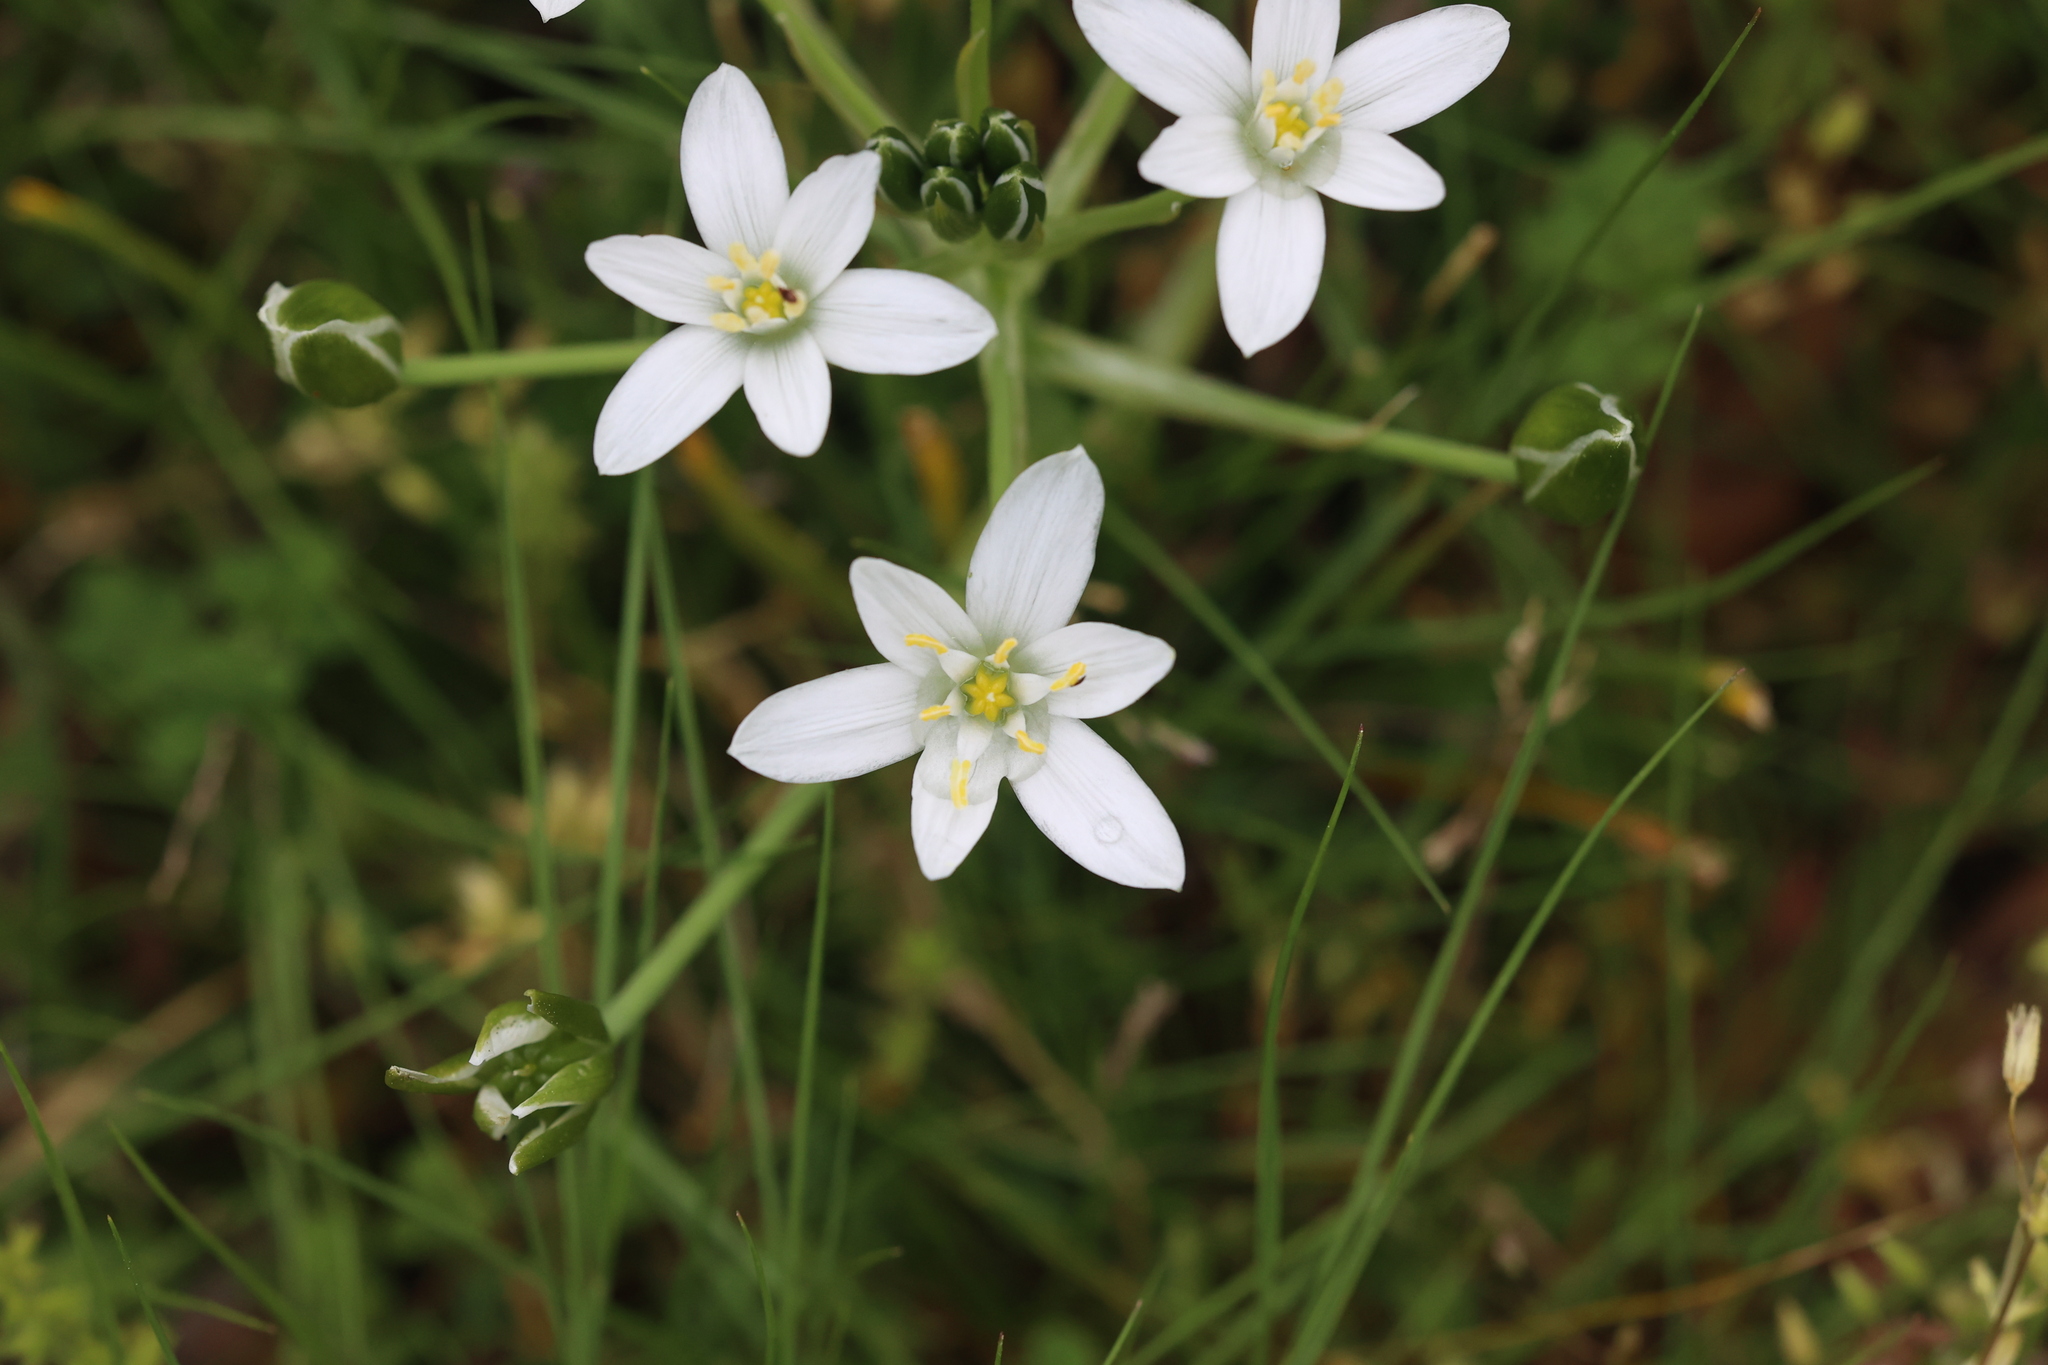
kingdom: Plantae
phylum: Tracheophyta
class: Liliopsida
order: Asparagales
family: Asparagaceae
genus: Ornithogalum
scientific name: Ornithogalum umbellatum
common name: Garden star-of-bethlehem
